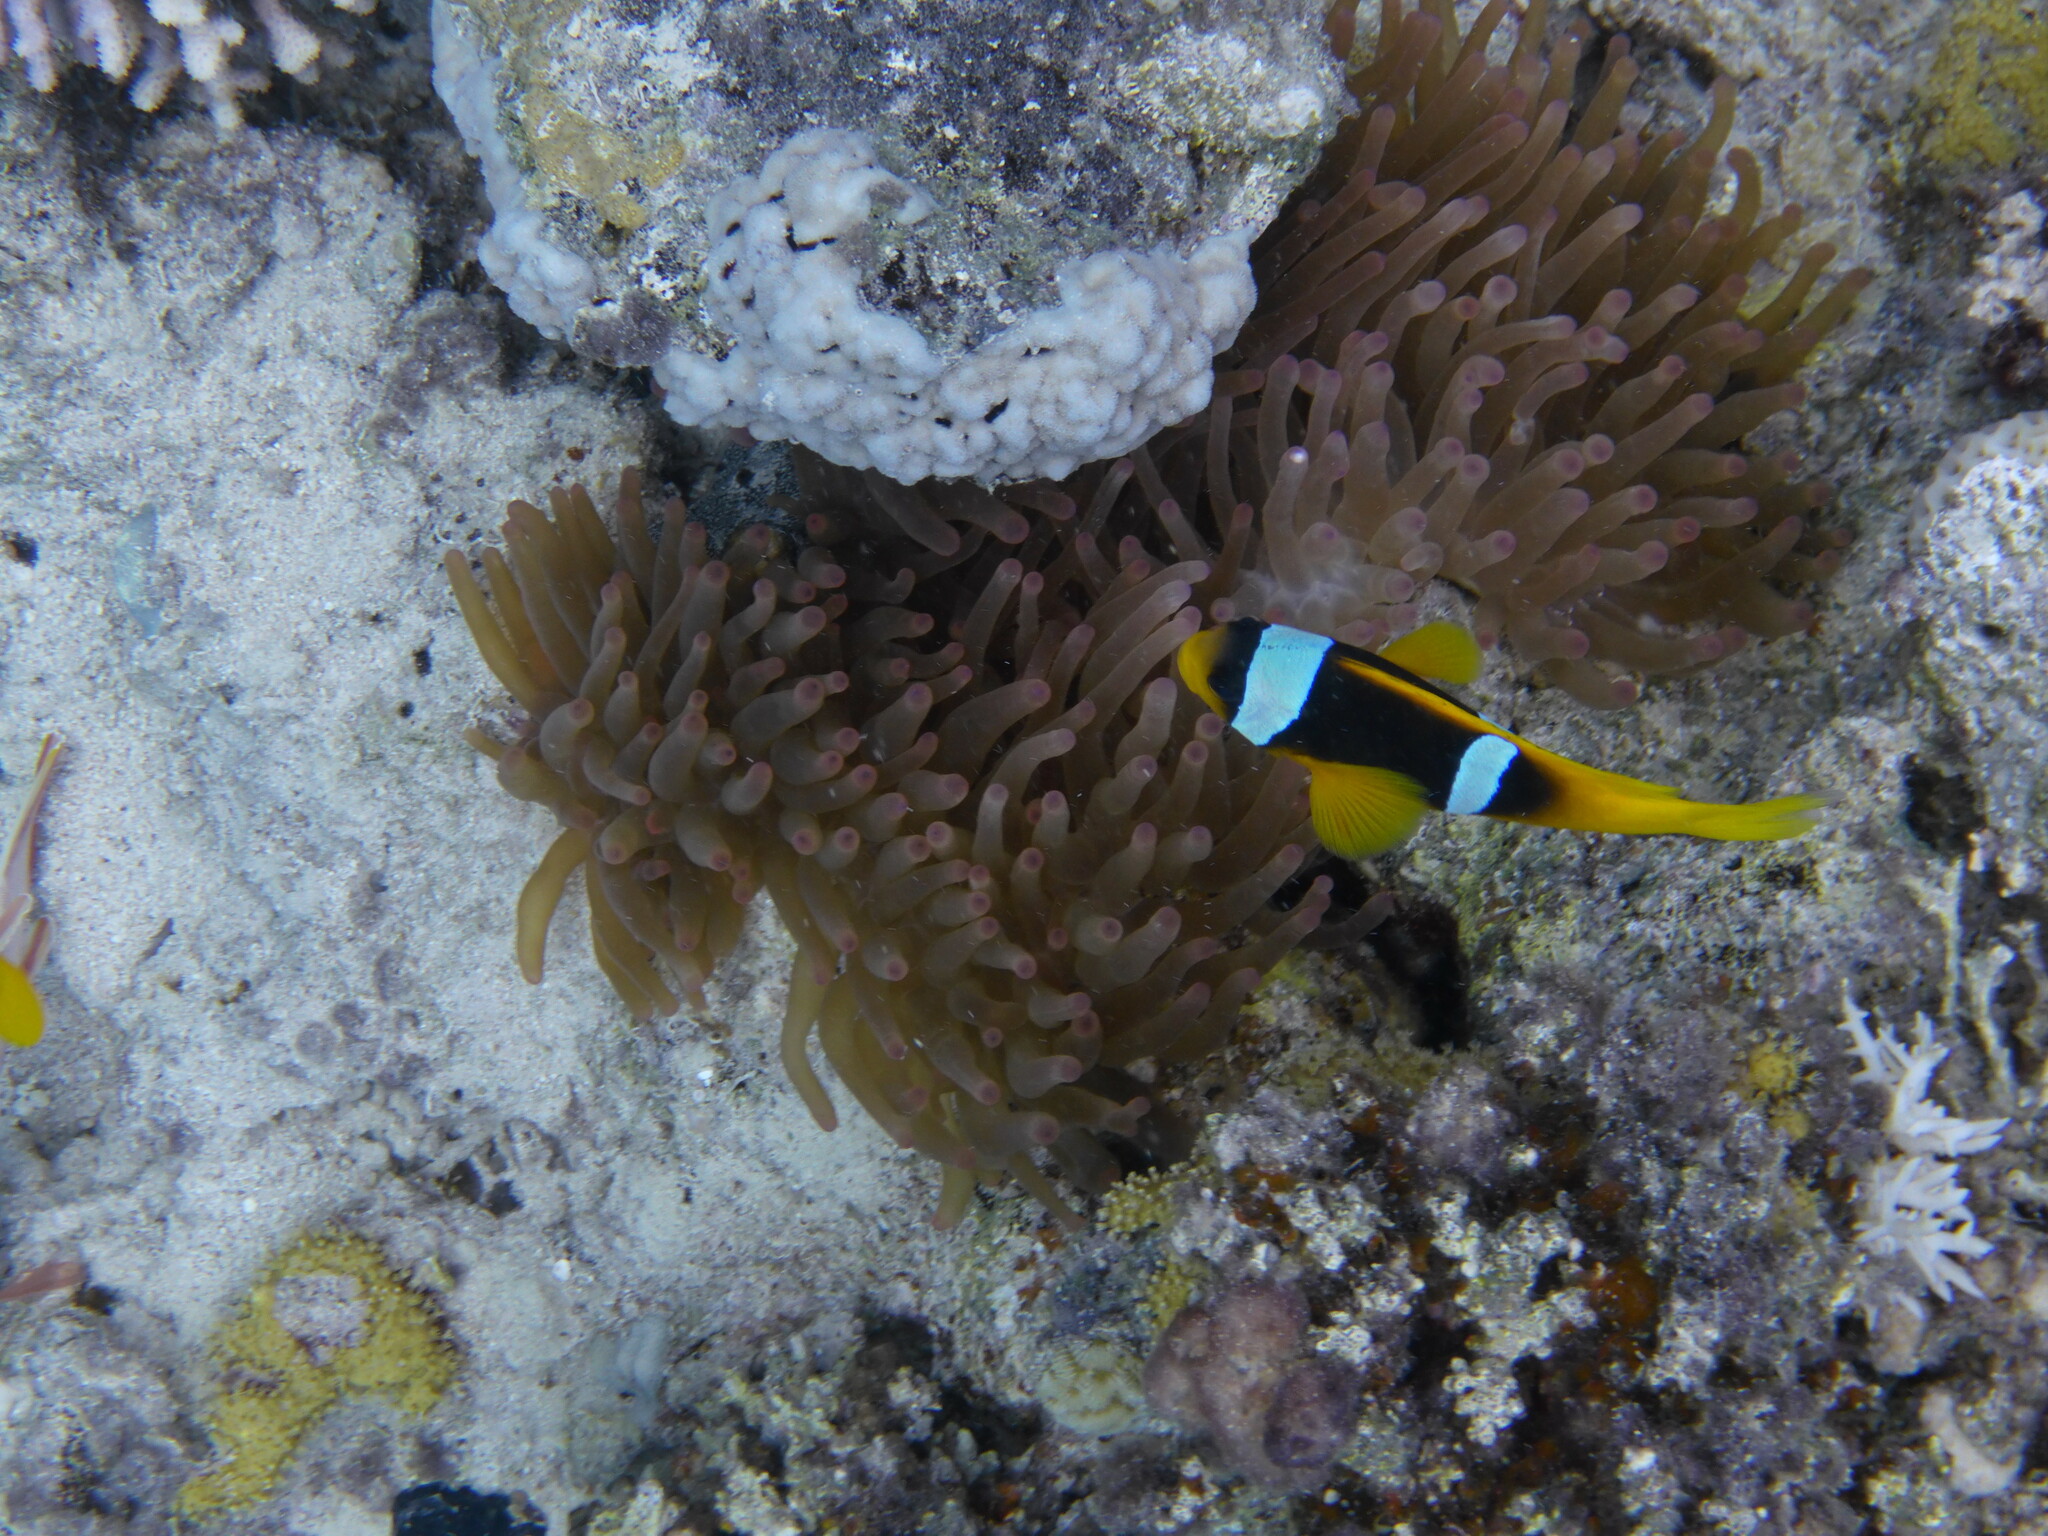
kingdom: Animalia
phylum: Chordata
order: Perciformes
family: Pomacentridae
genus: Amphiprion
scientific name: Amphiprion bicinctus
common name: Two-banded anemonefish
